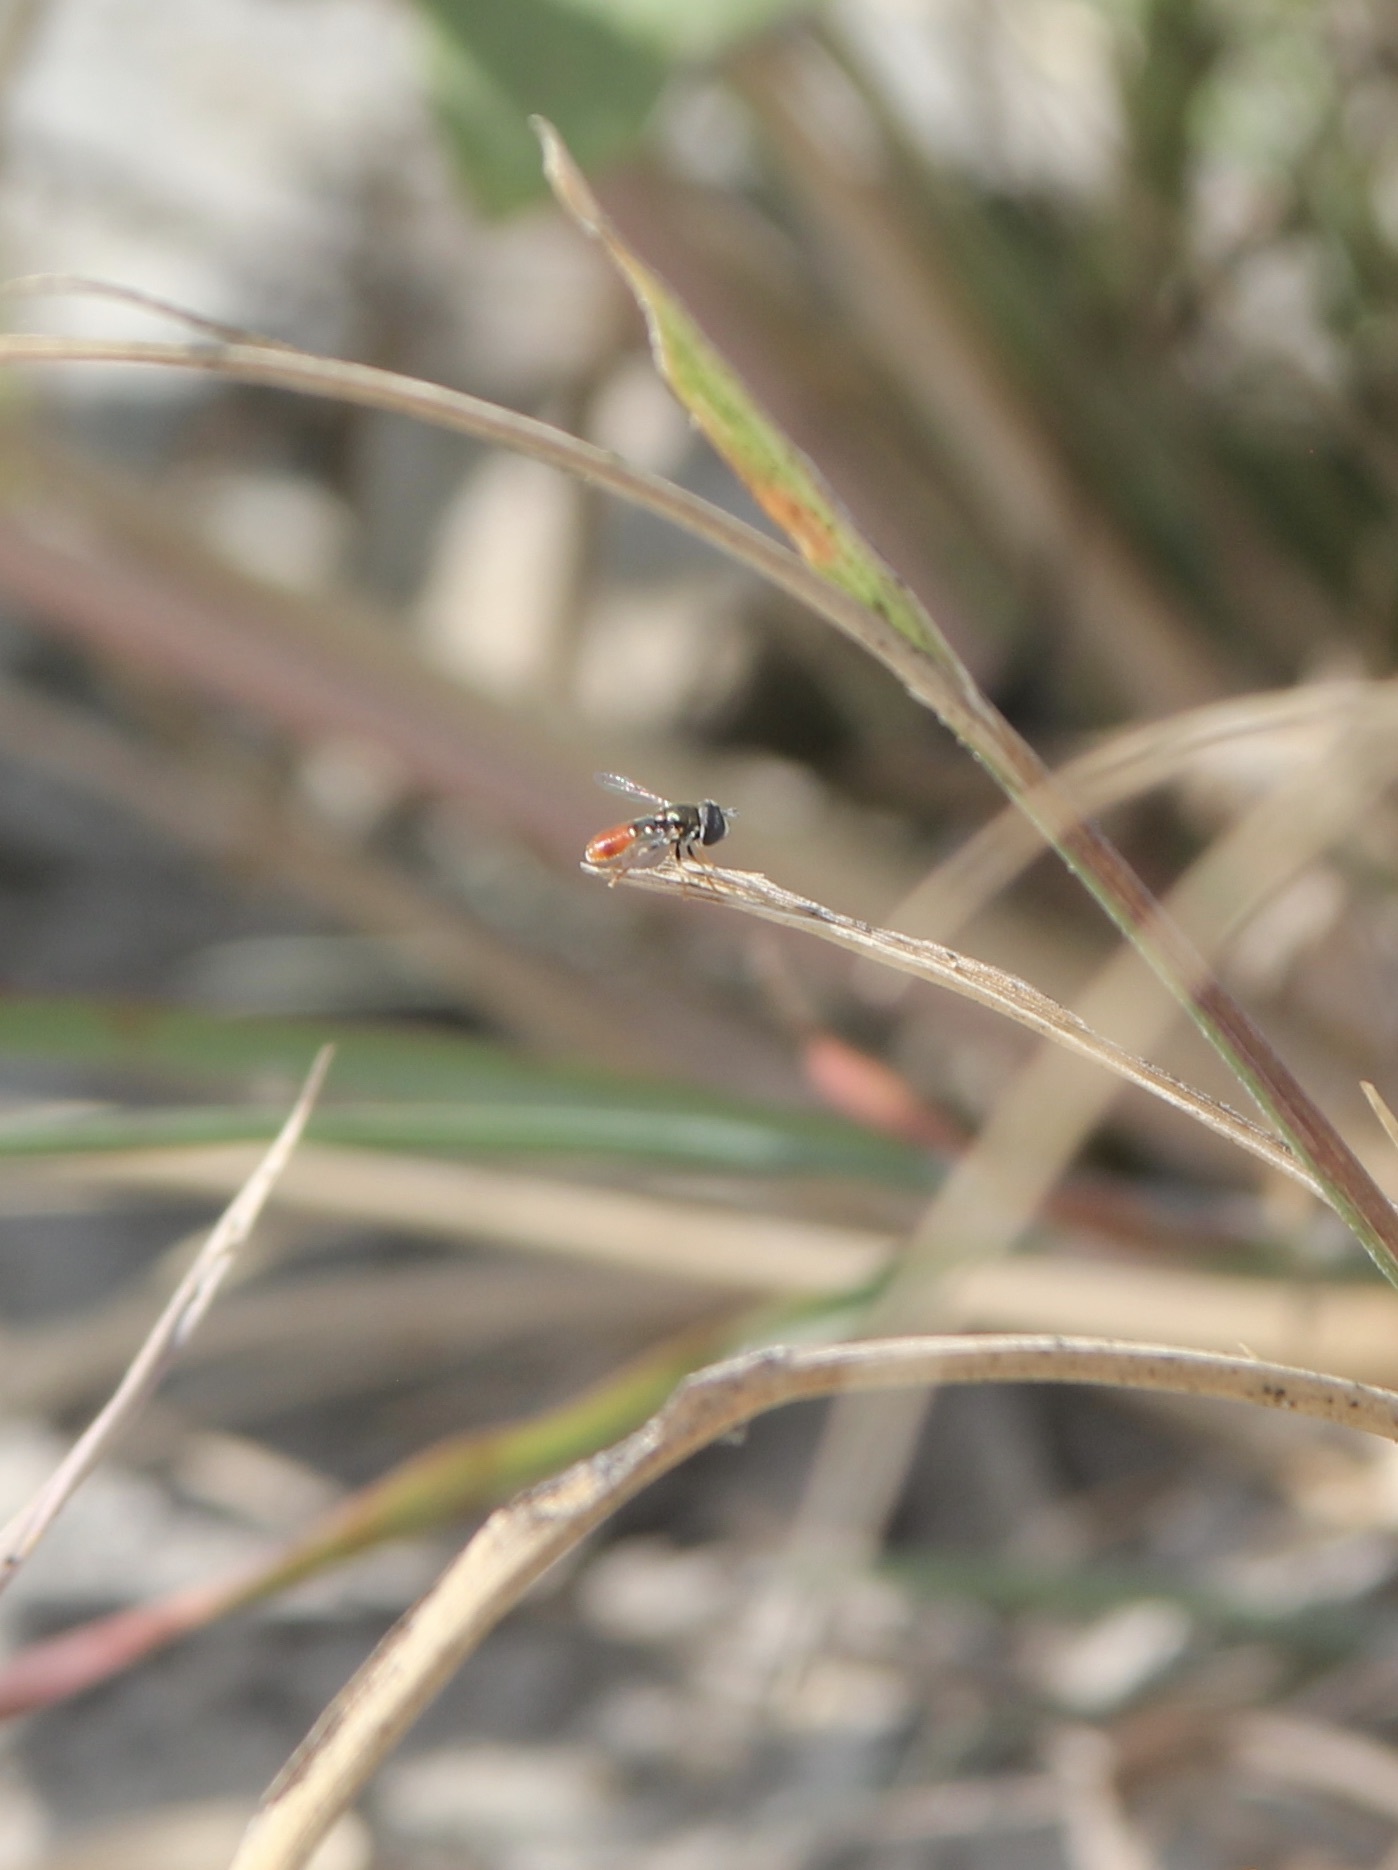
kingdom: Animalia
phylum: Arthropoda
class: Insecta
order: Diptera
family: Syrphidae
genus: Paragus
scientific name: Paragus haemorrhous
